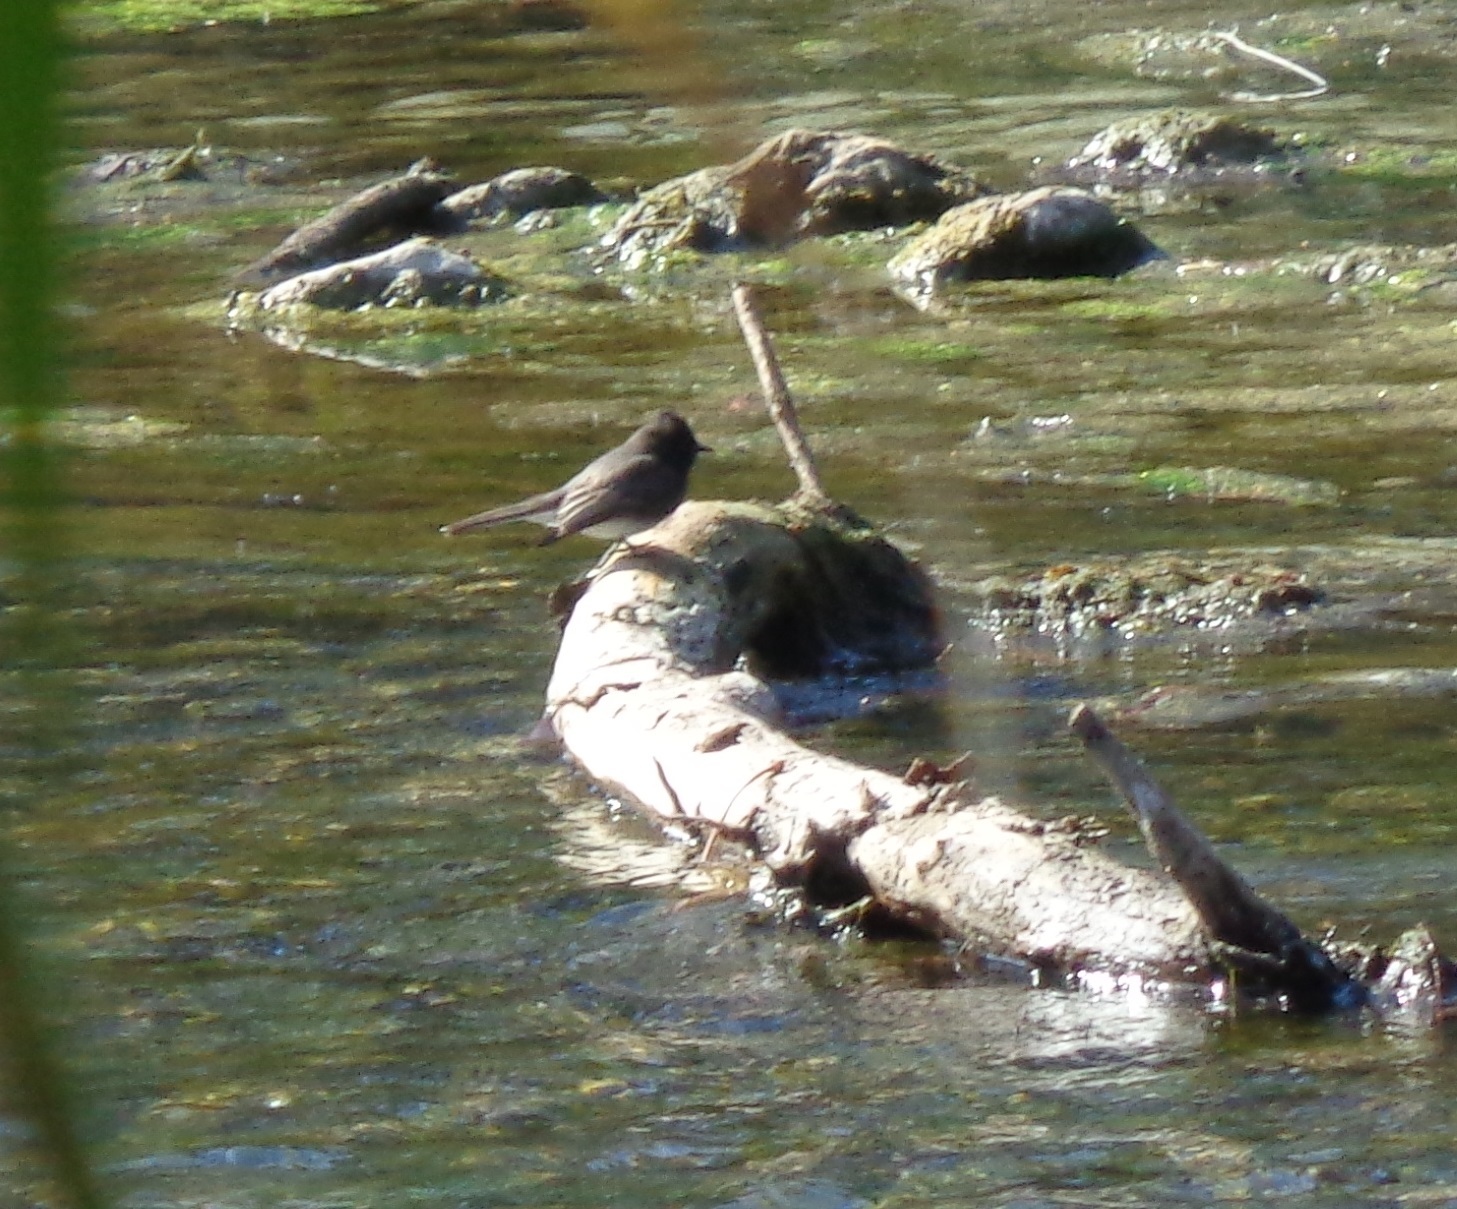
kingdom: Animalia
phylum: Chordata
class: Aves
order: Passeriformes
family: Tyrannidae
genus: Sayornis
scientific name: Sayornis nigricans
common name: Black phoebe
